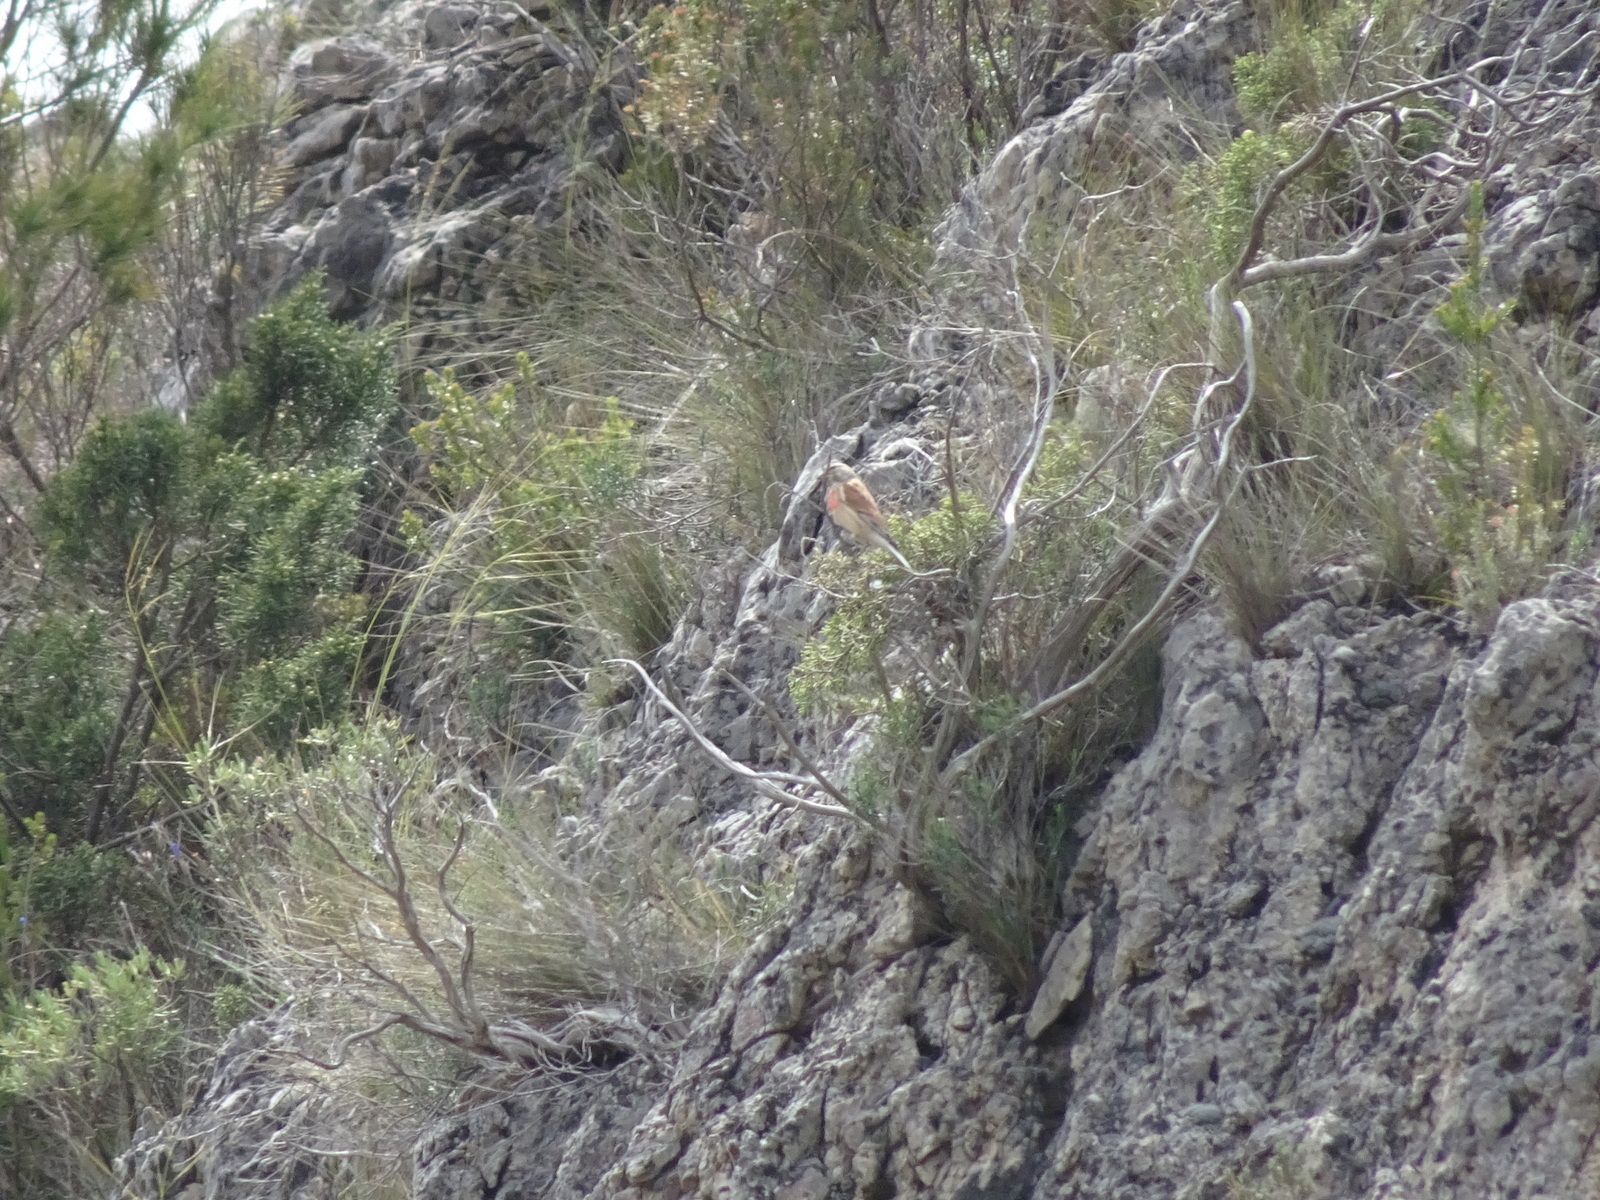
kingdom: Animalia
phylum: Chordata
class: Aves
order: Passeriformes
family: Fringillidae
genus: Linaria
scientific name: Linaria cannabina
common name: Common linnet
